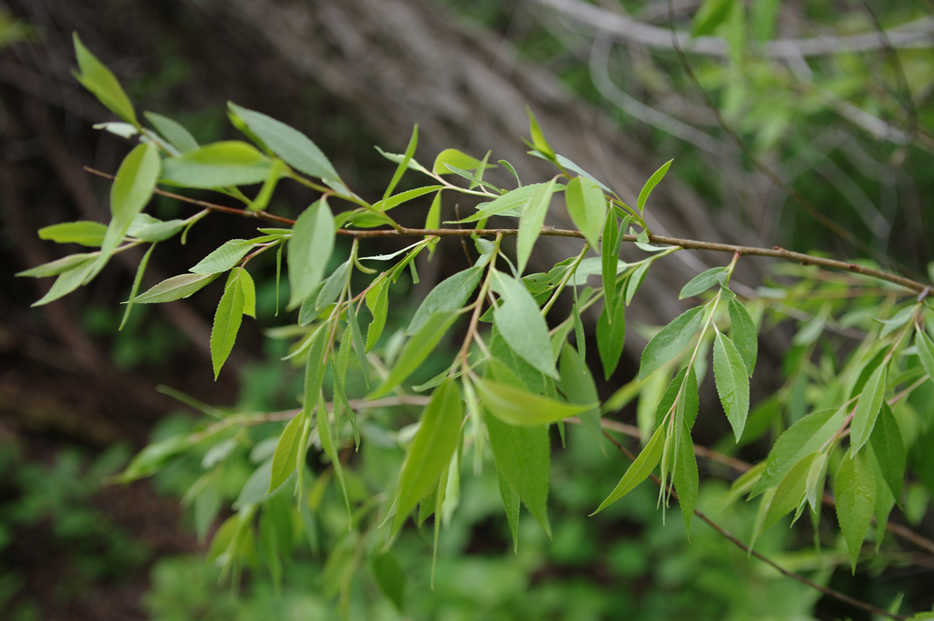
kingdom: Plantae
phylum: Tracheophyta
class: Magnoliopsida
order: Malpighiales
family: Salicaceae
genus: Salix
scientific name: Salix amygdaloides
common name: Peach leaf willow
